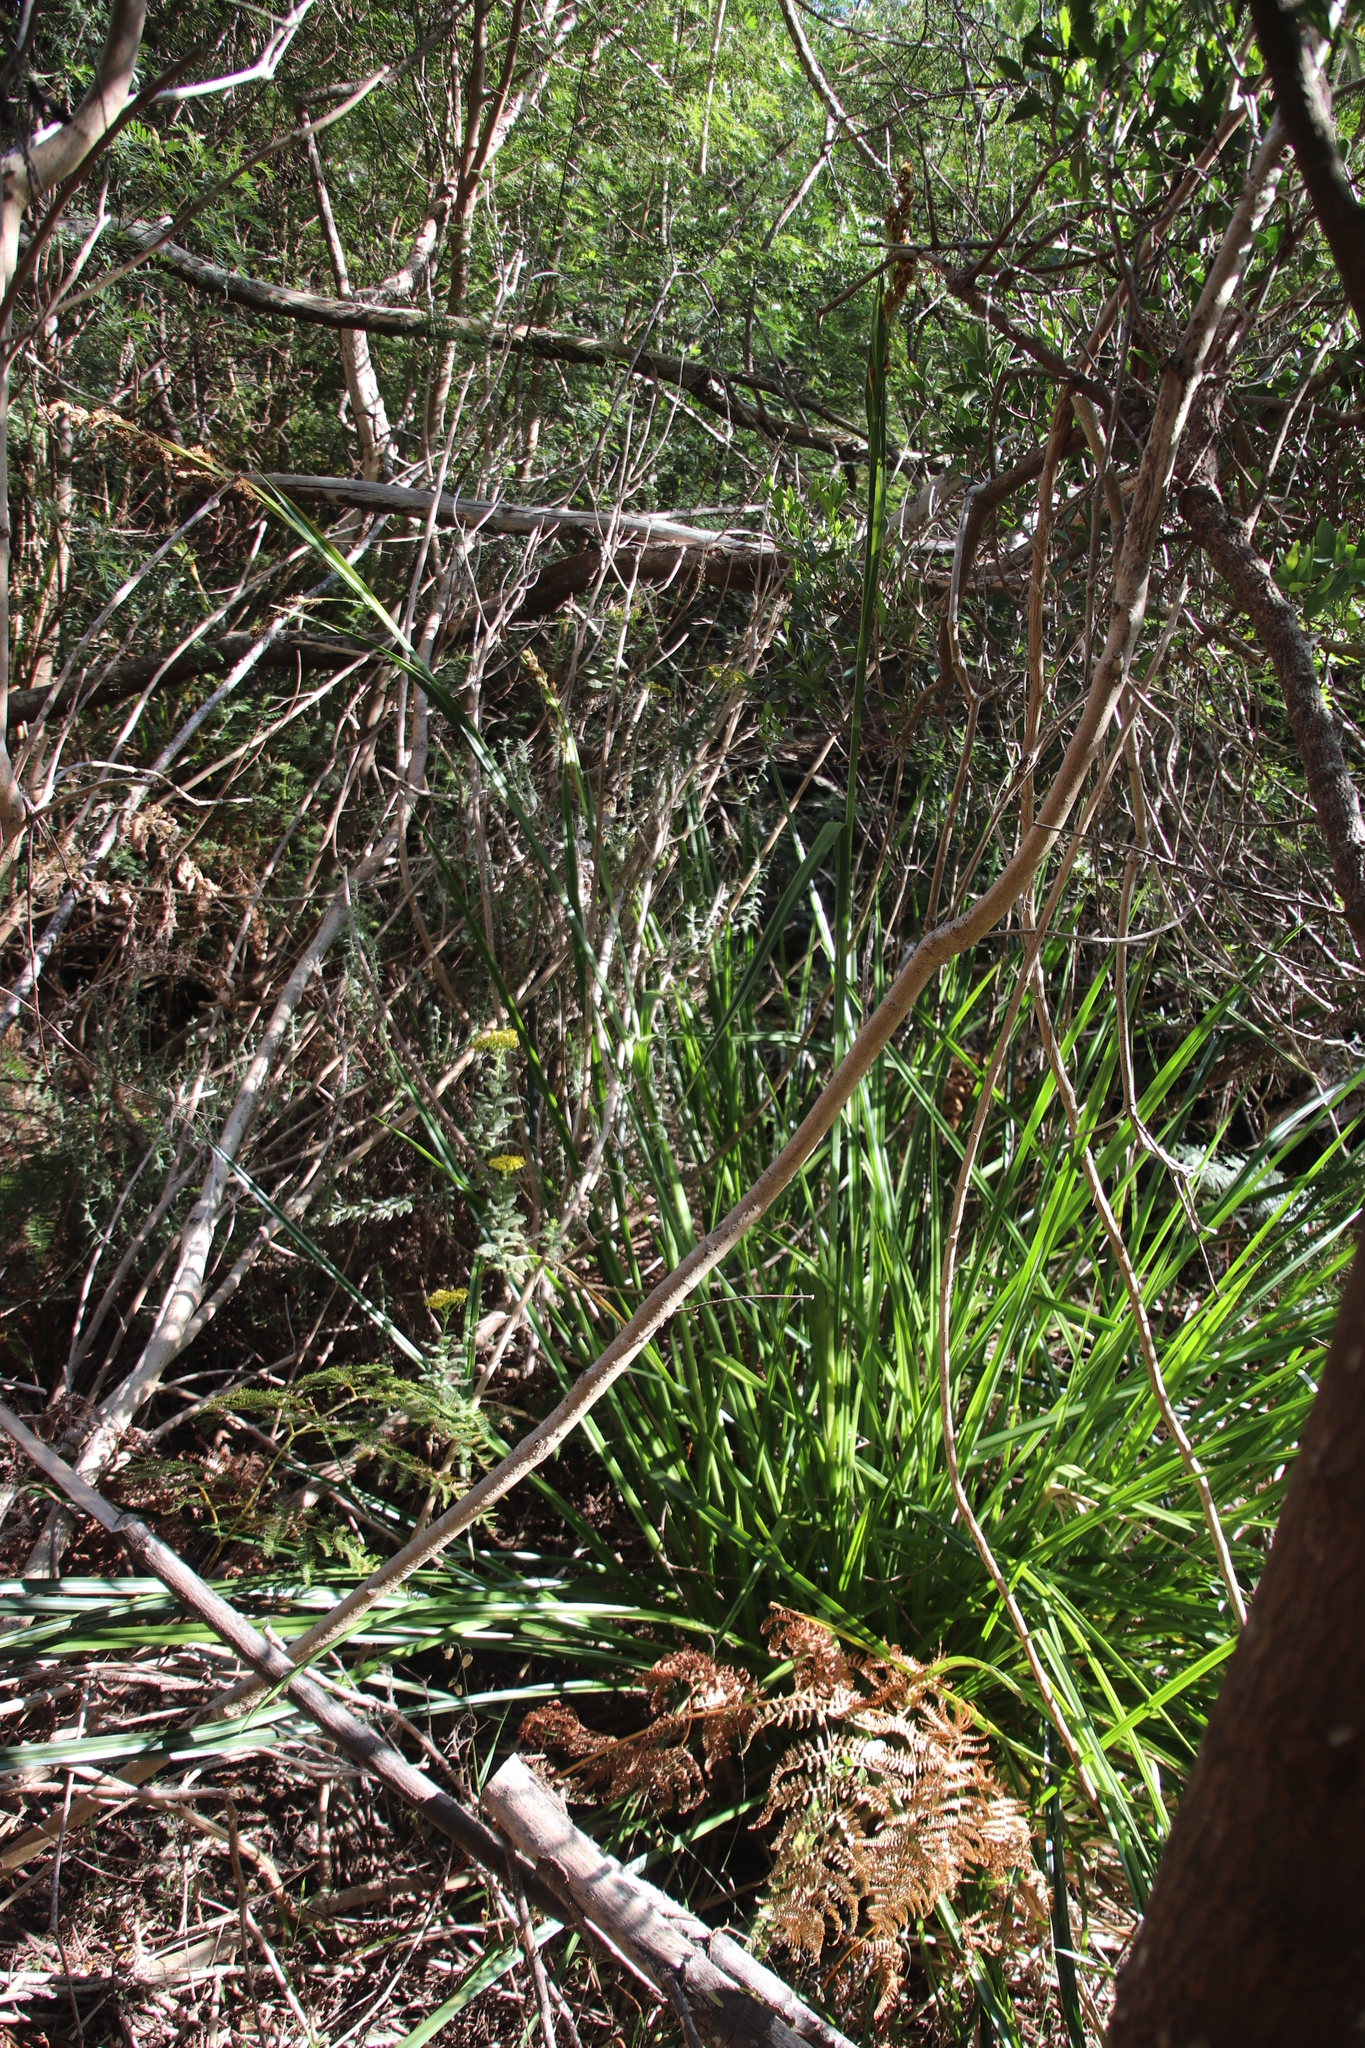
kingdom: Plantae
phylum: Tracheophyta
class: Liliopsida
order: Poales
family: Cyperaceae
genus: Carpha
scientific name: Carpha glomerata
